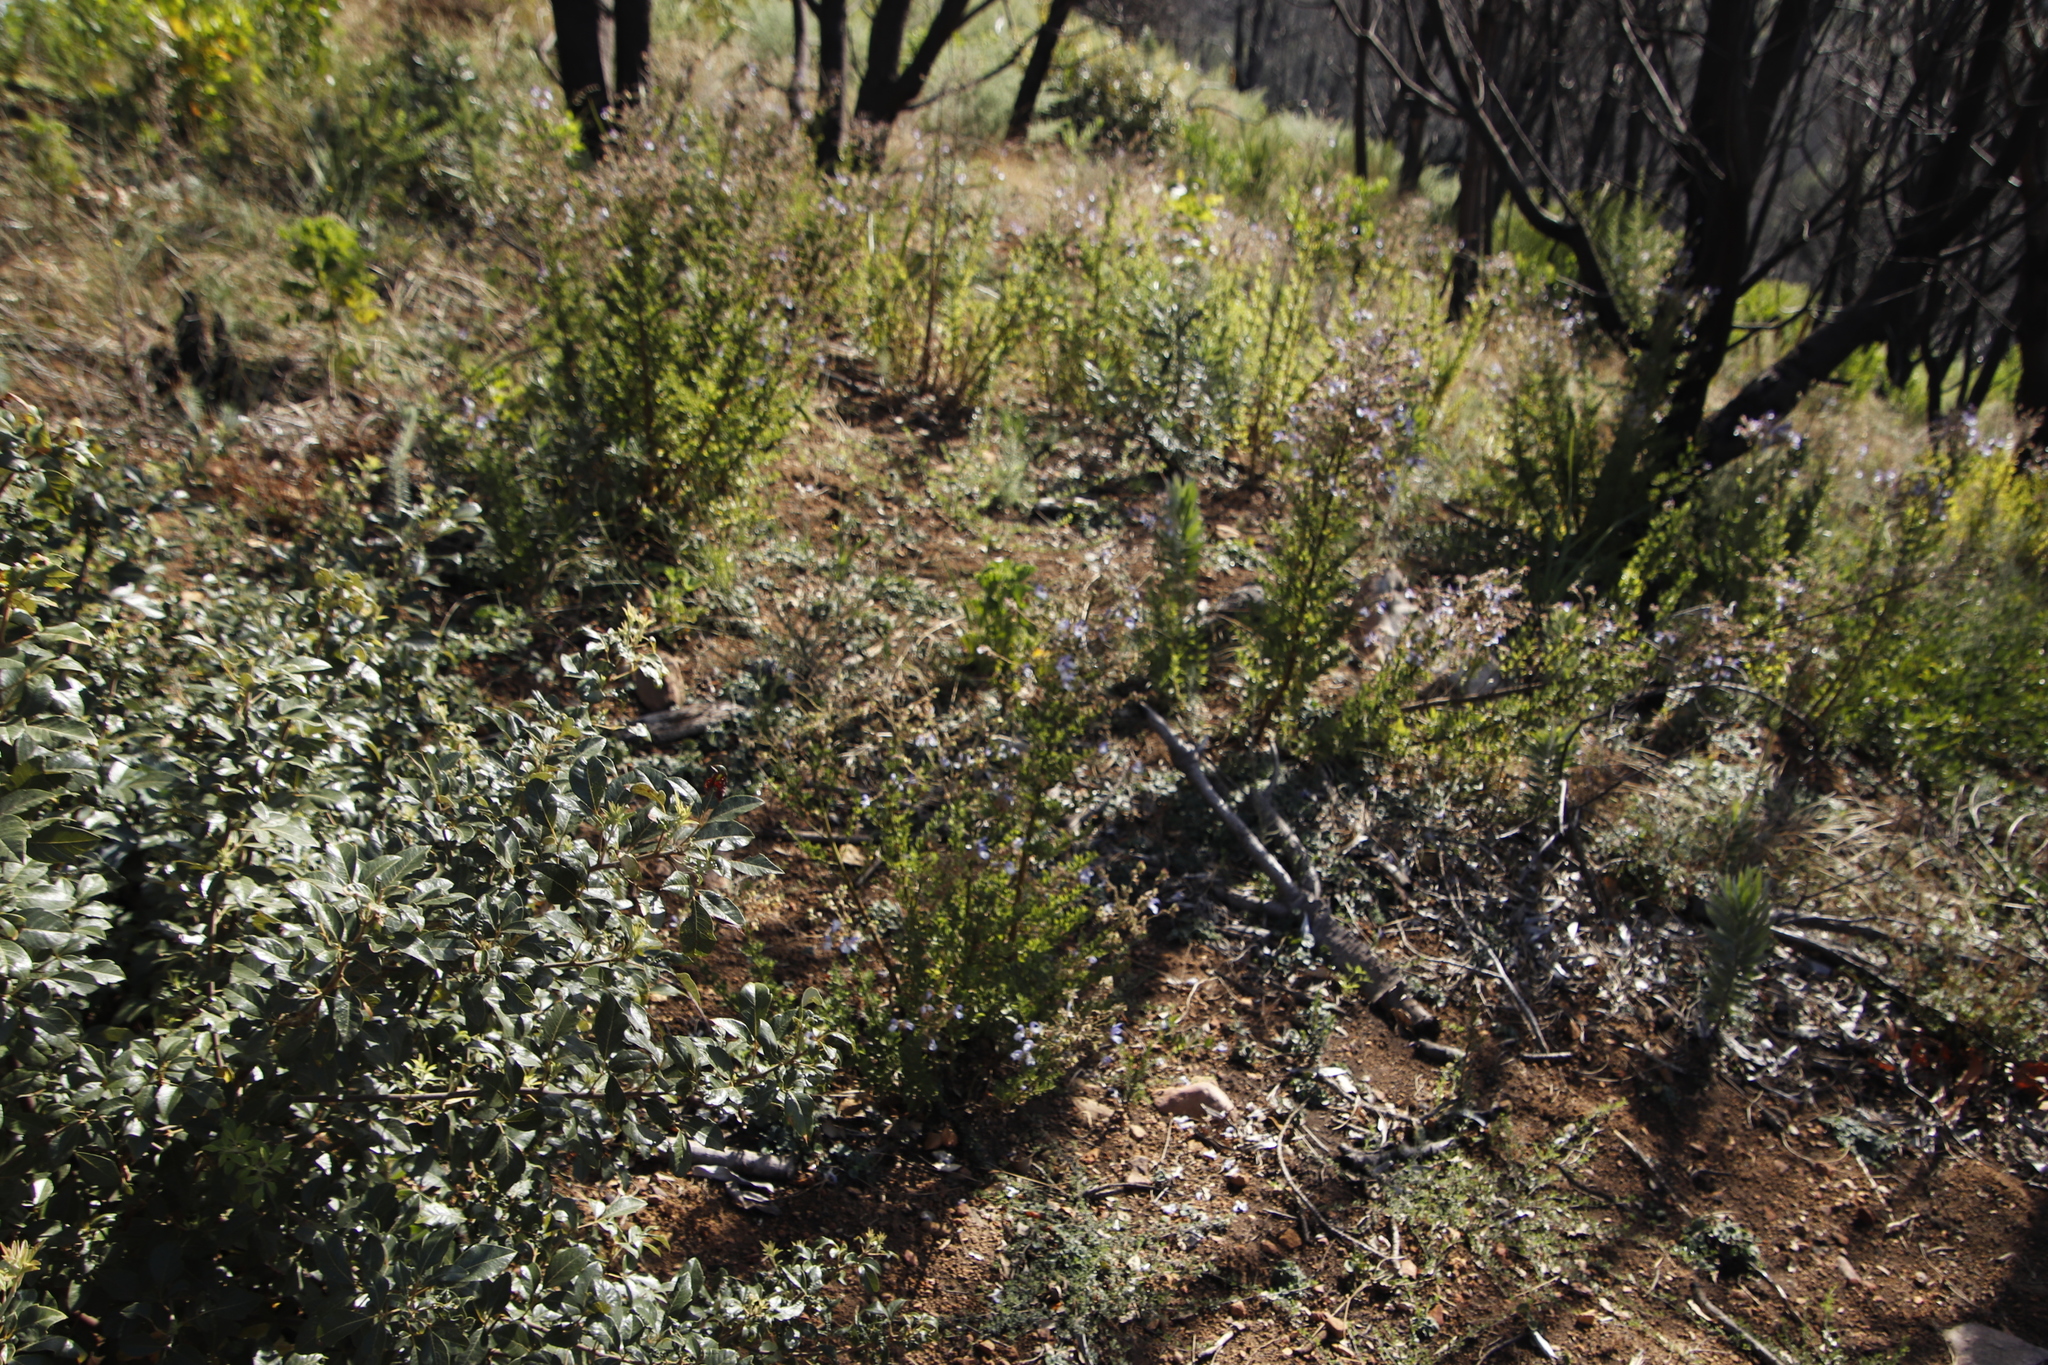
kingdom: Plantae
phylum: Tracheophyta
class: Magnoliopsida
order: Lamiales
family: Lamiaceae
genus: Salvia
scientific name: Salvia chamelaeagnea
